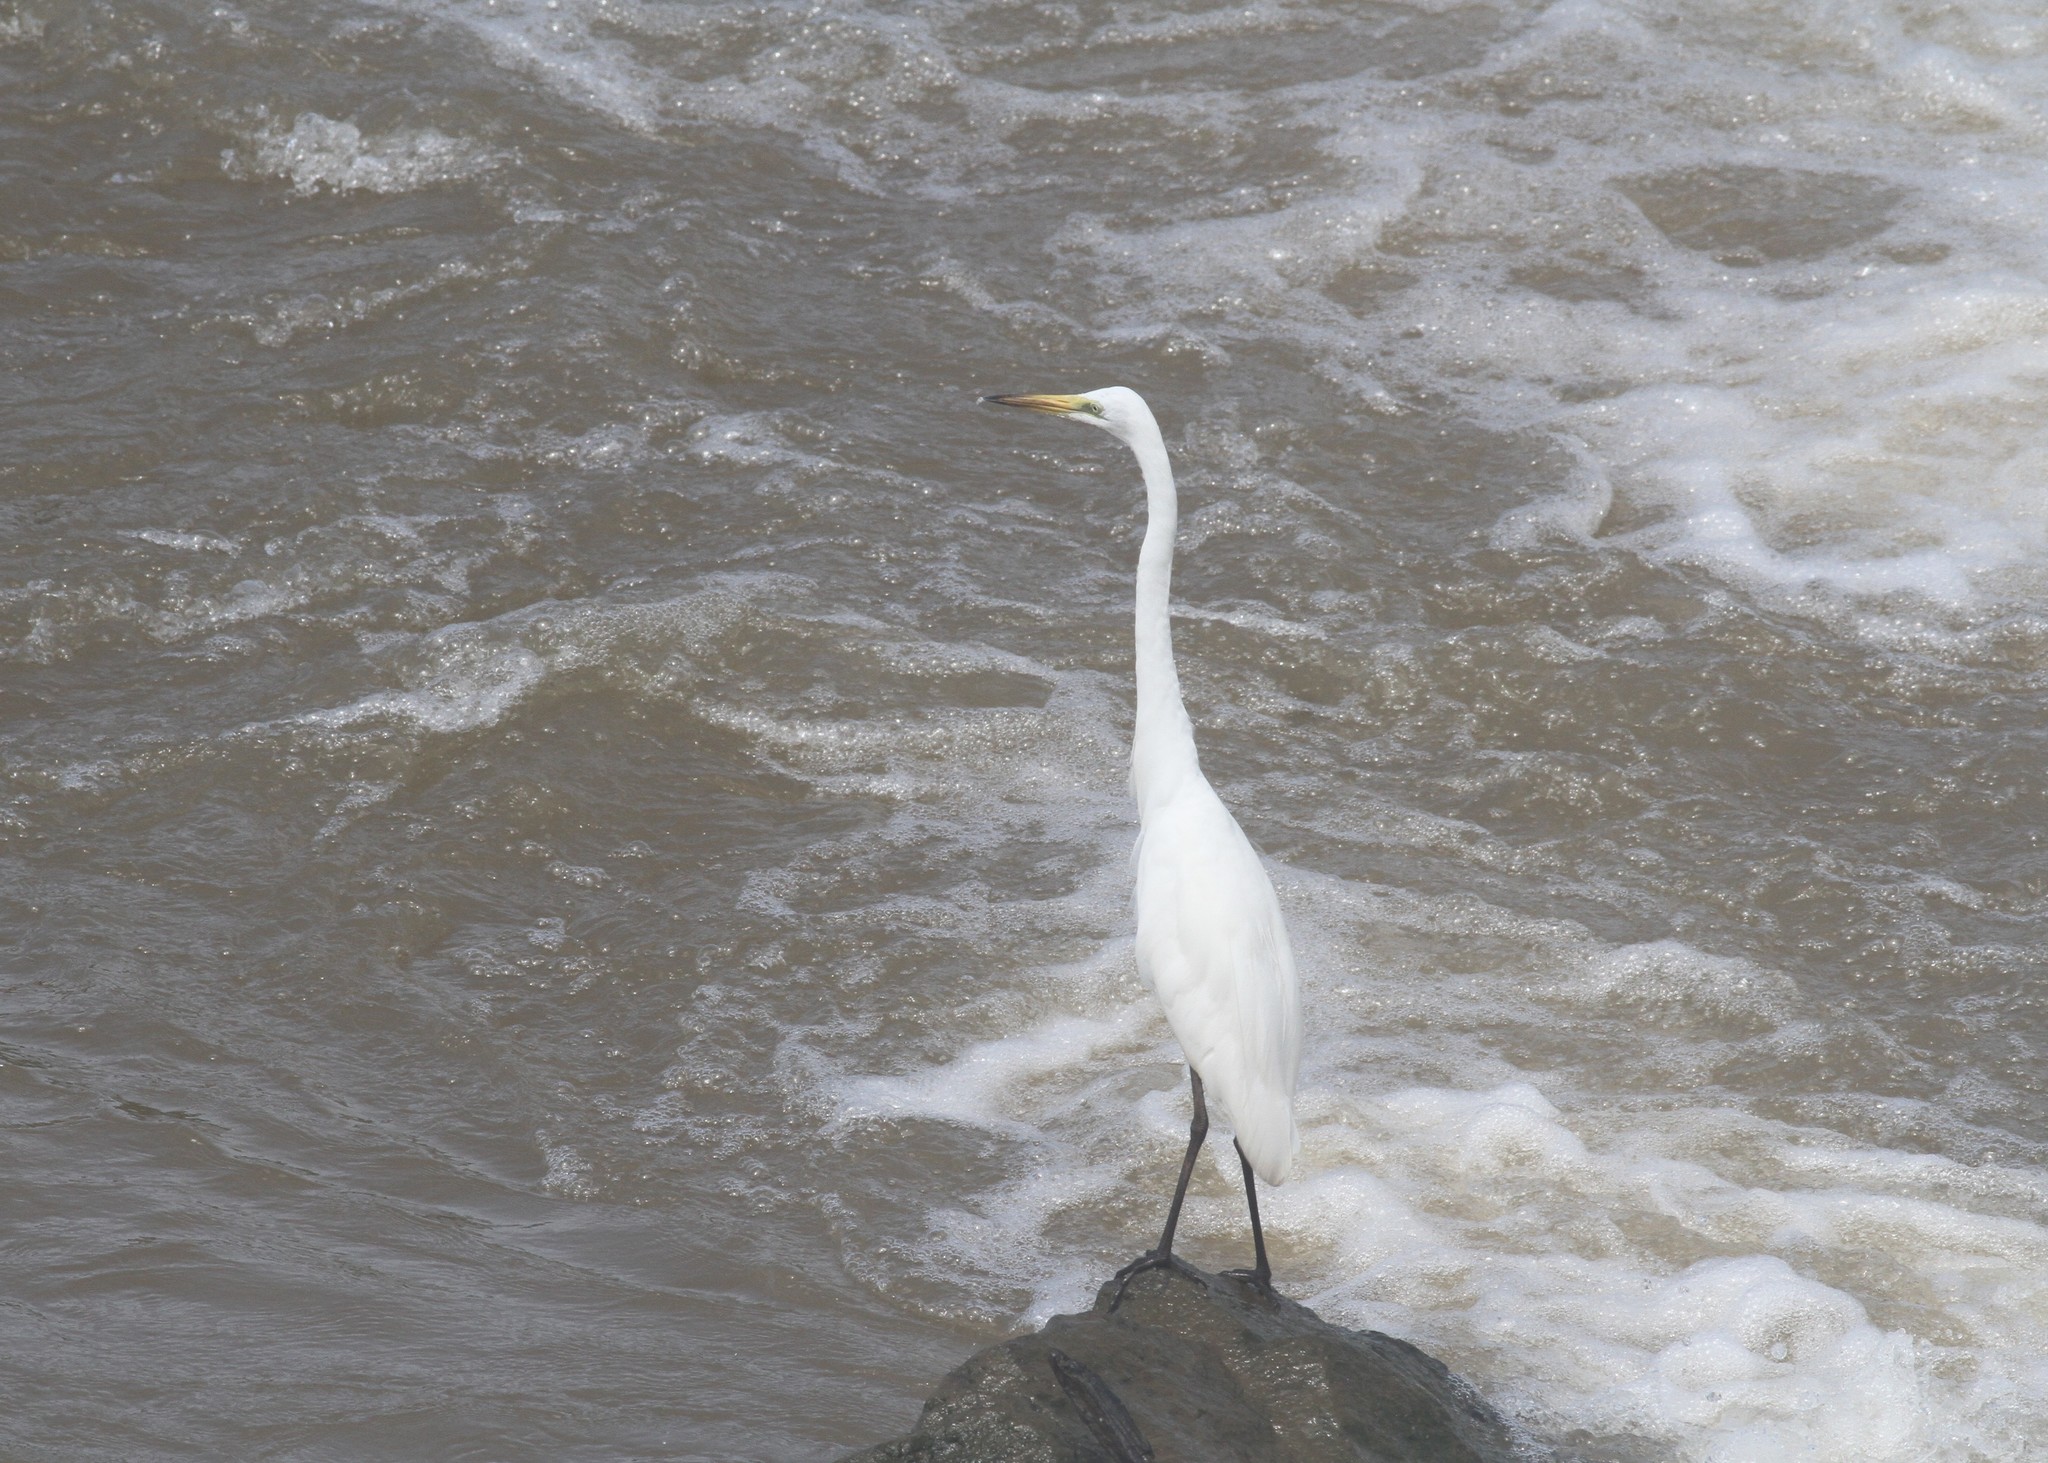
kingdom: Animalia
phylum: Chordata
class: Aves
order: Pelecaniformes
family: Ardeidae
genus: Ardea
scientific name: Ardea alba
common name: Great egret
